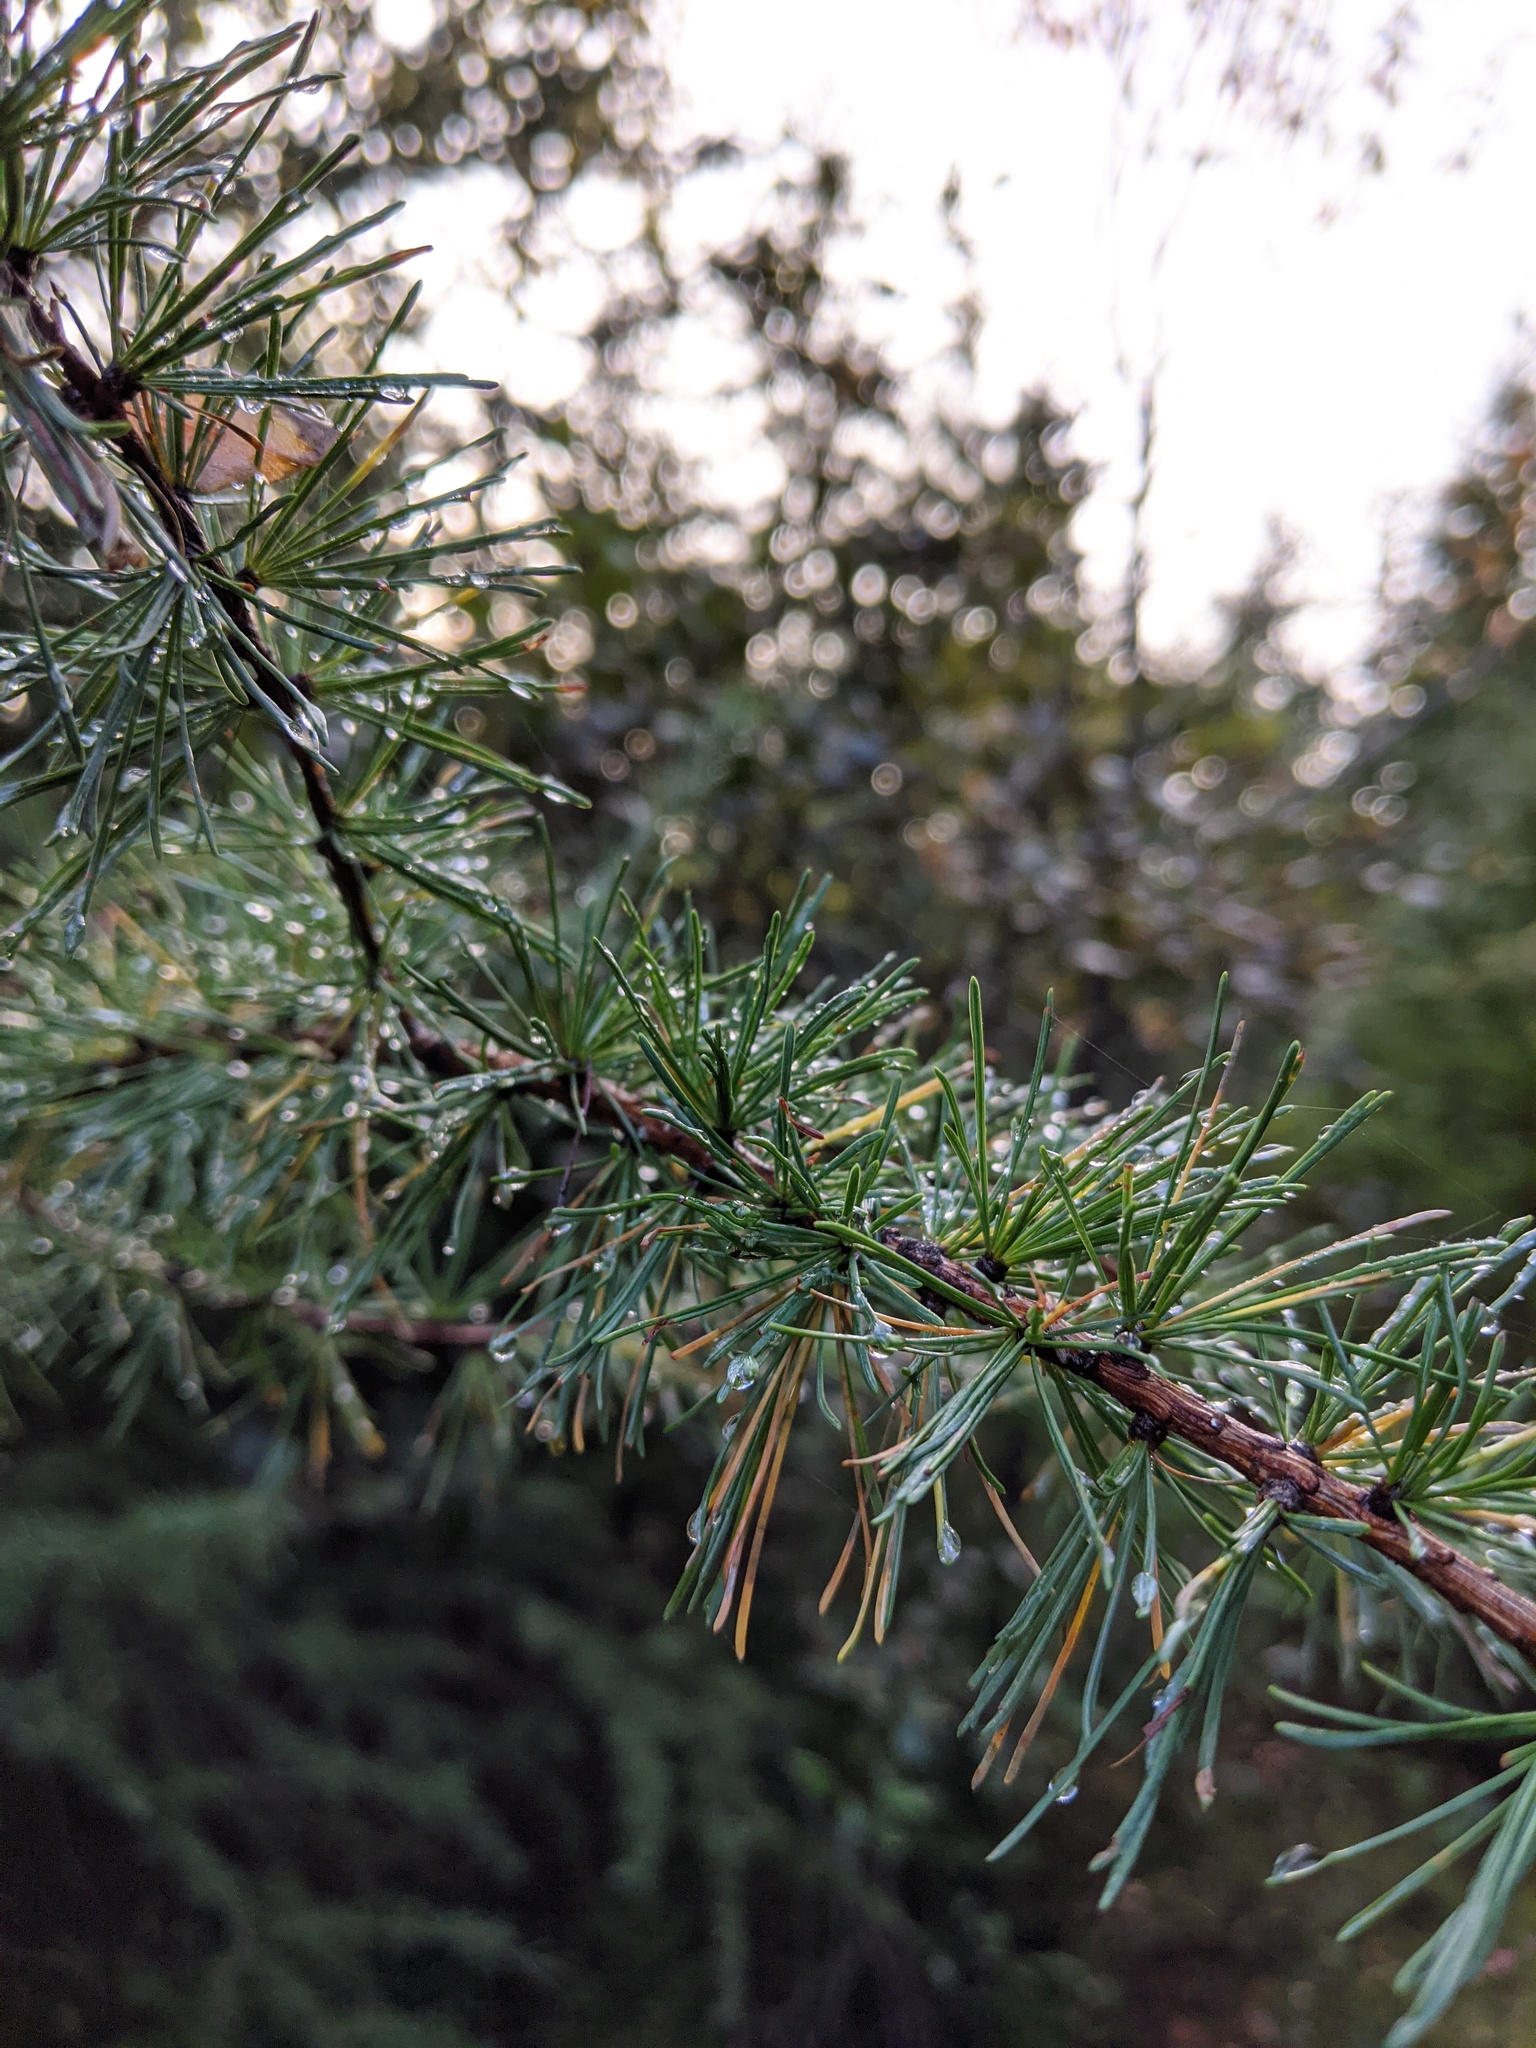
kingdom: Plantae
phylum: Tracheophyta
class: Pinopsida
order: Pinales
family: Pinaceae
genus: Larix
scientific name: Larix laricina
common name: American larch
